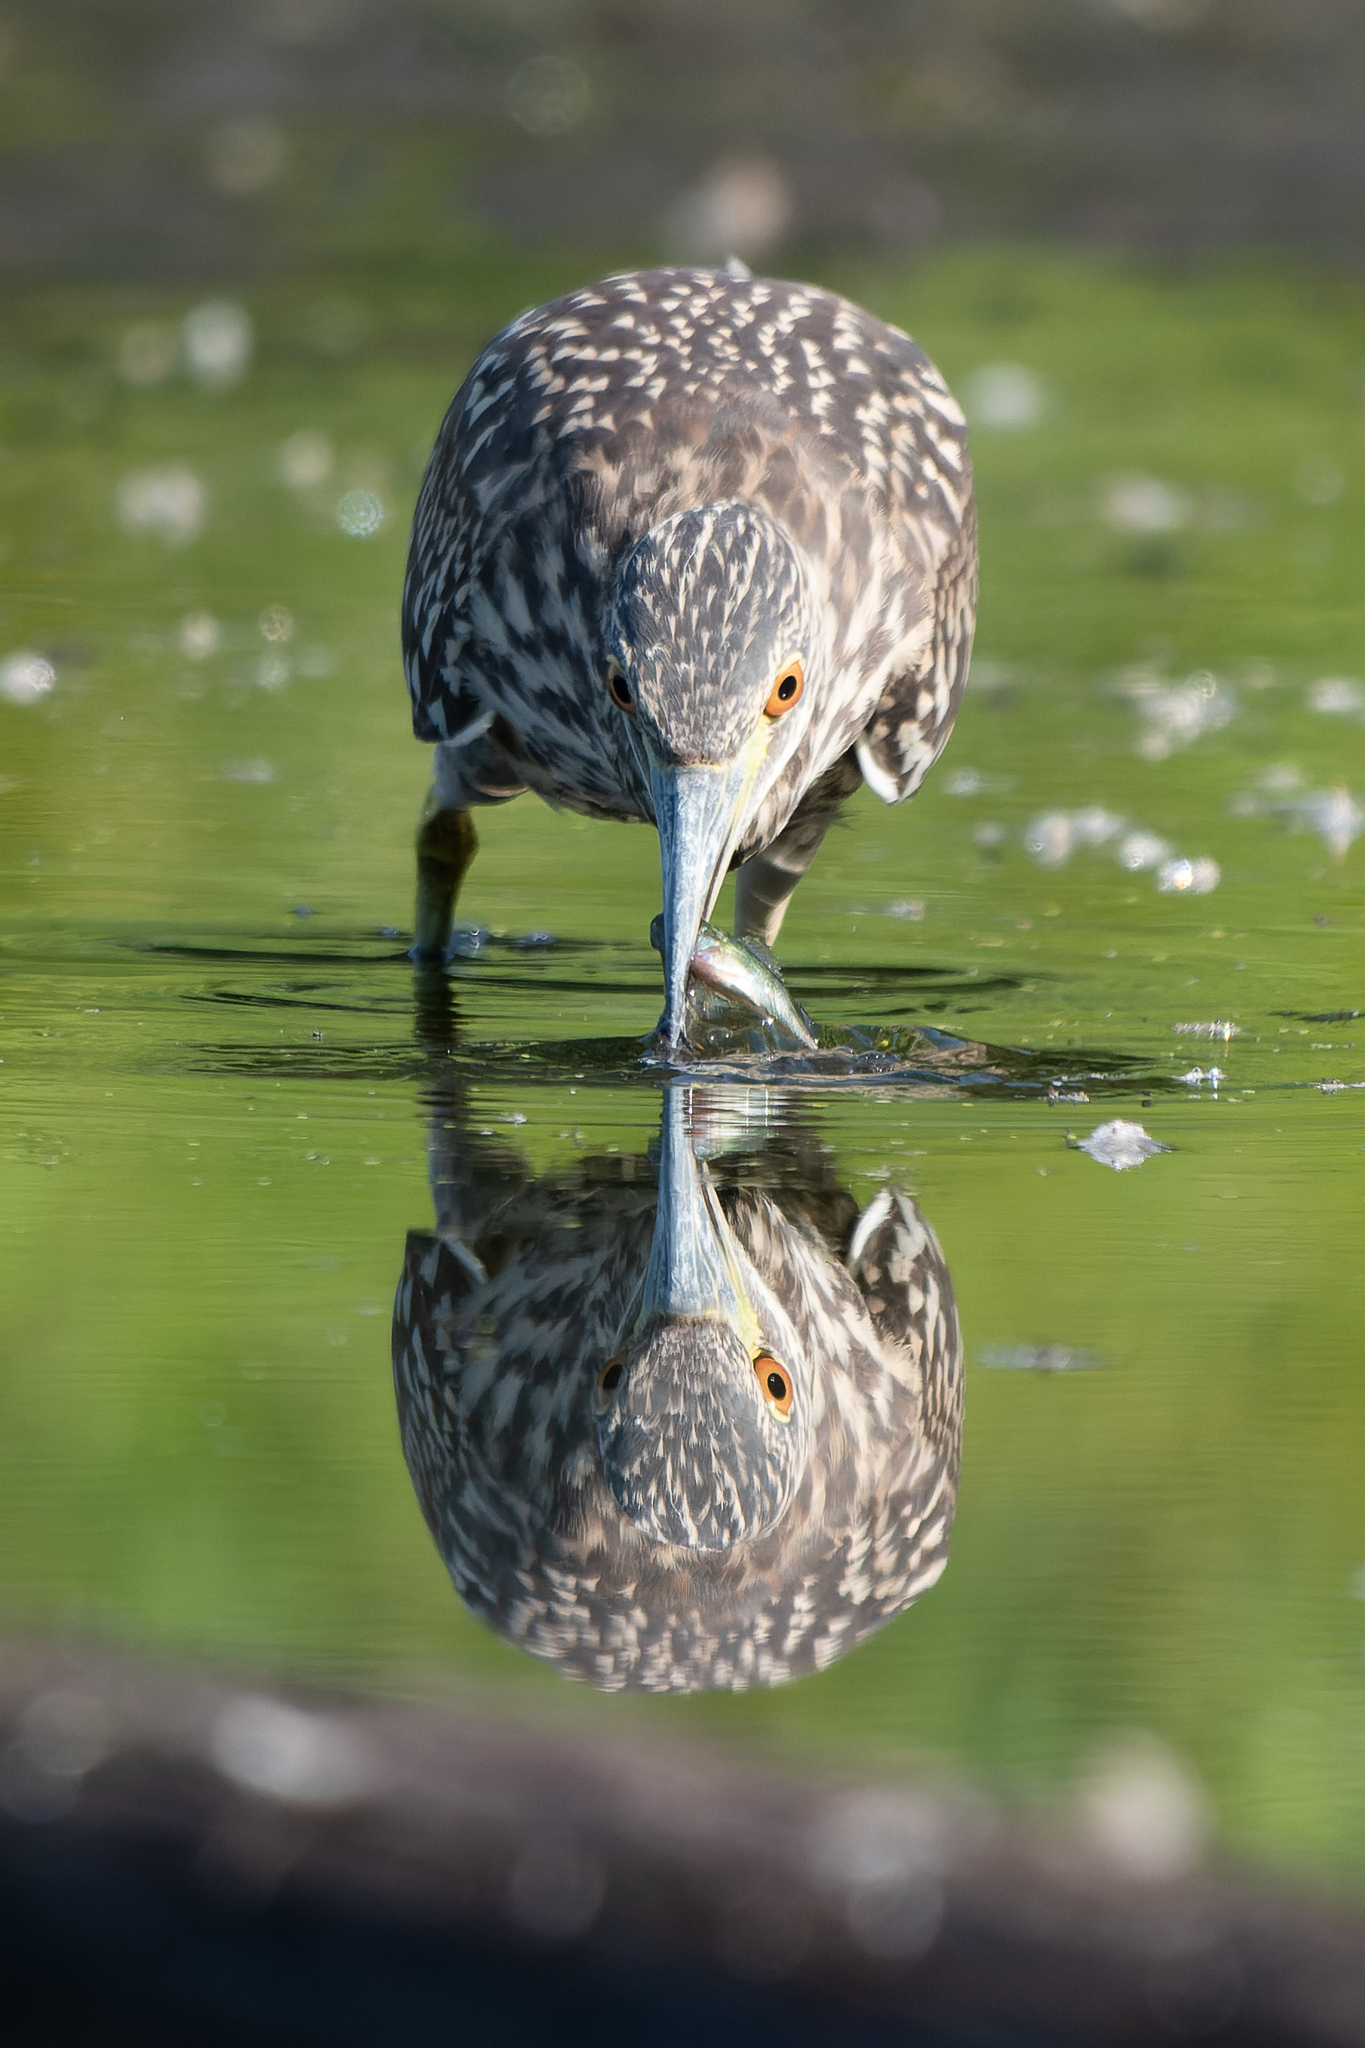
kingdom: Animalia
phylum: Chordata
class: Aves
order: Pelecaniformes
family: Ardeidae
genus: Nycticorax
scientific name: Nycticorax nycticorax
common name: Black-crowned night heron
